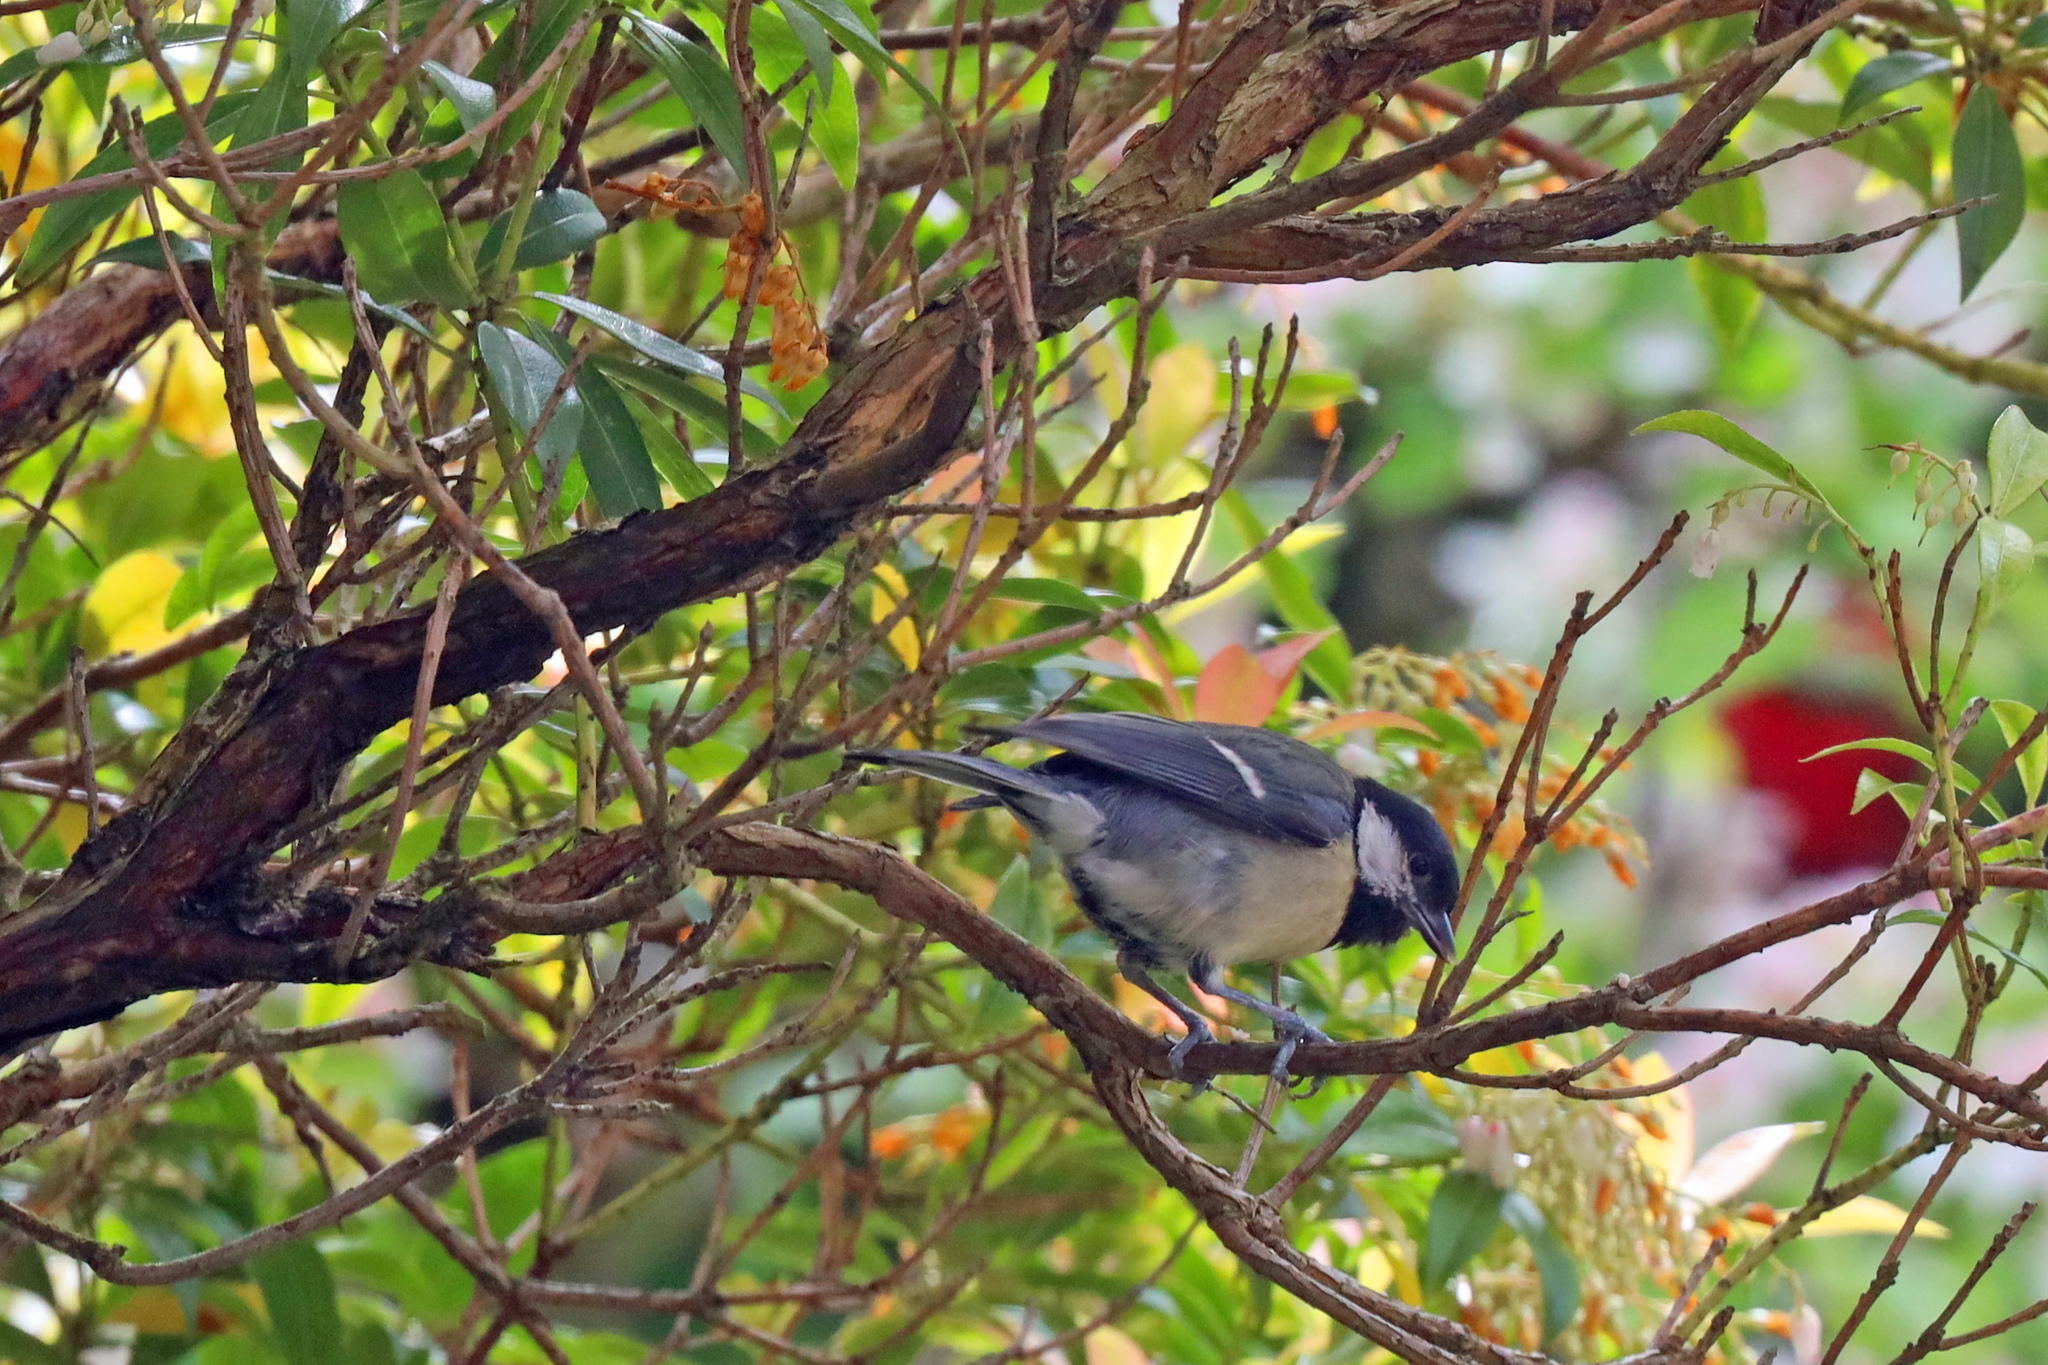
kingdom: Animalia
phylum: Chordata
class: Aves
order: Passeriformes
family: Paridae
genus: Parus
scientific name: Parus major
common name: Great tit
